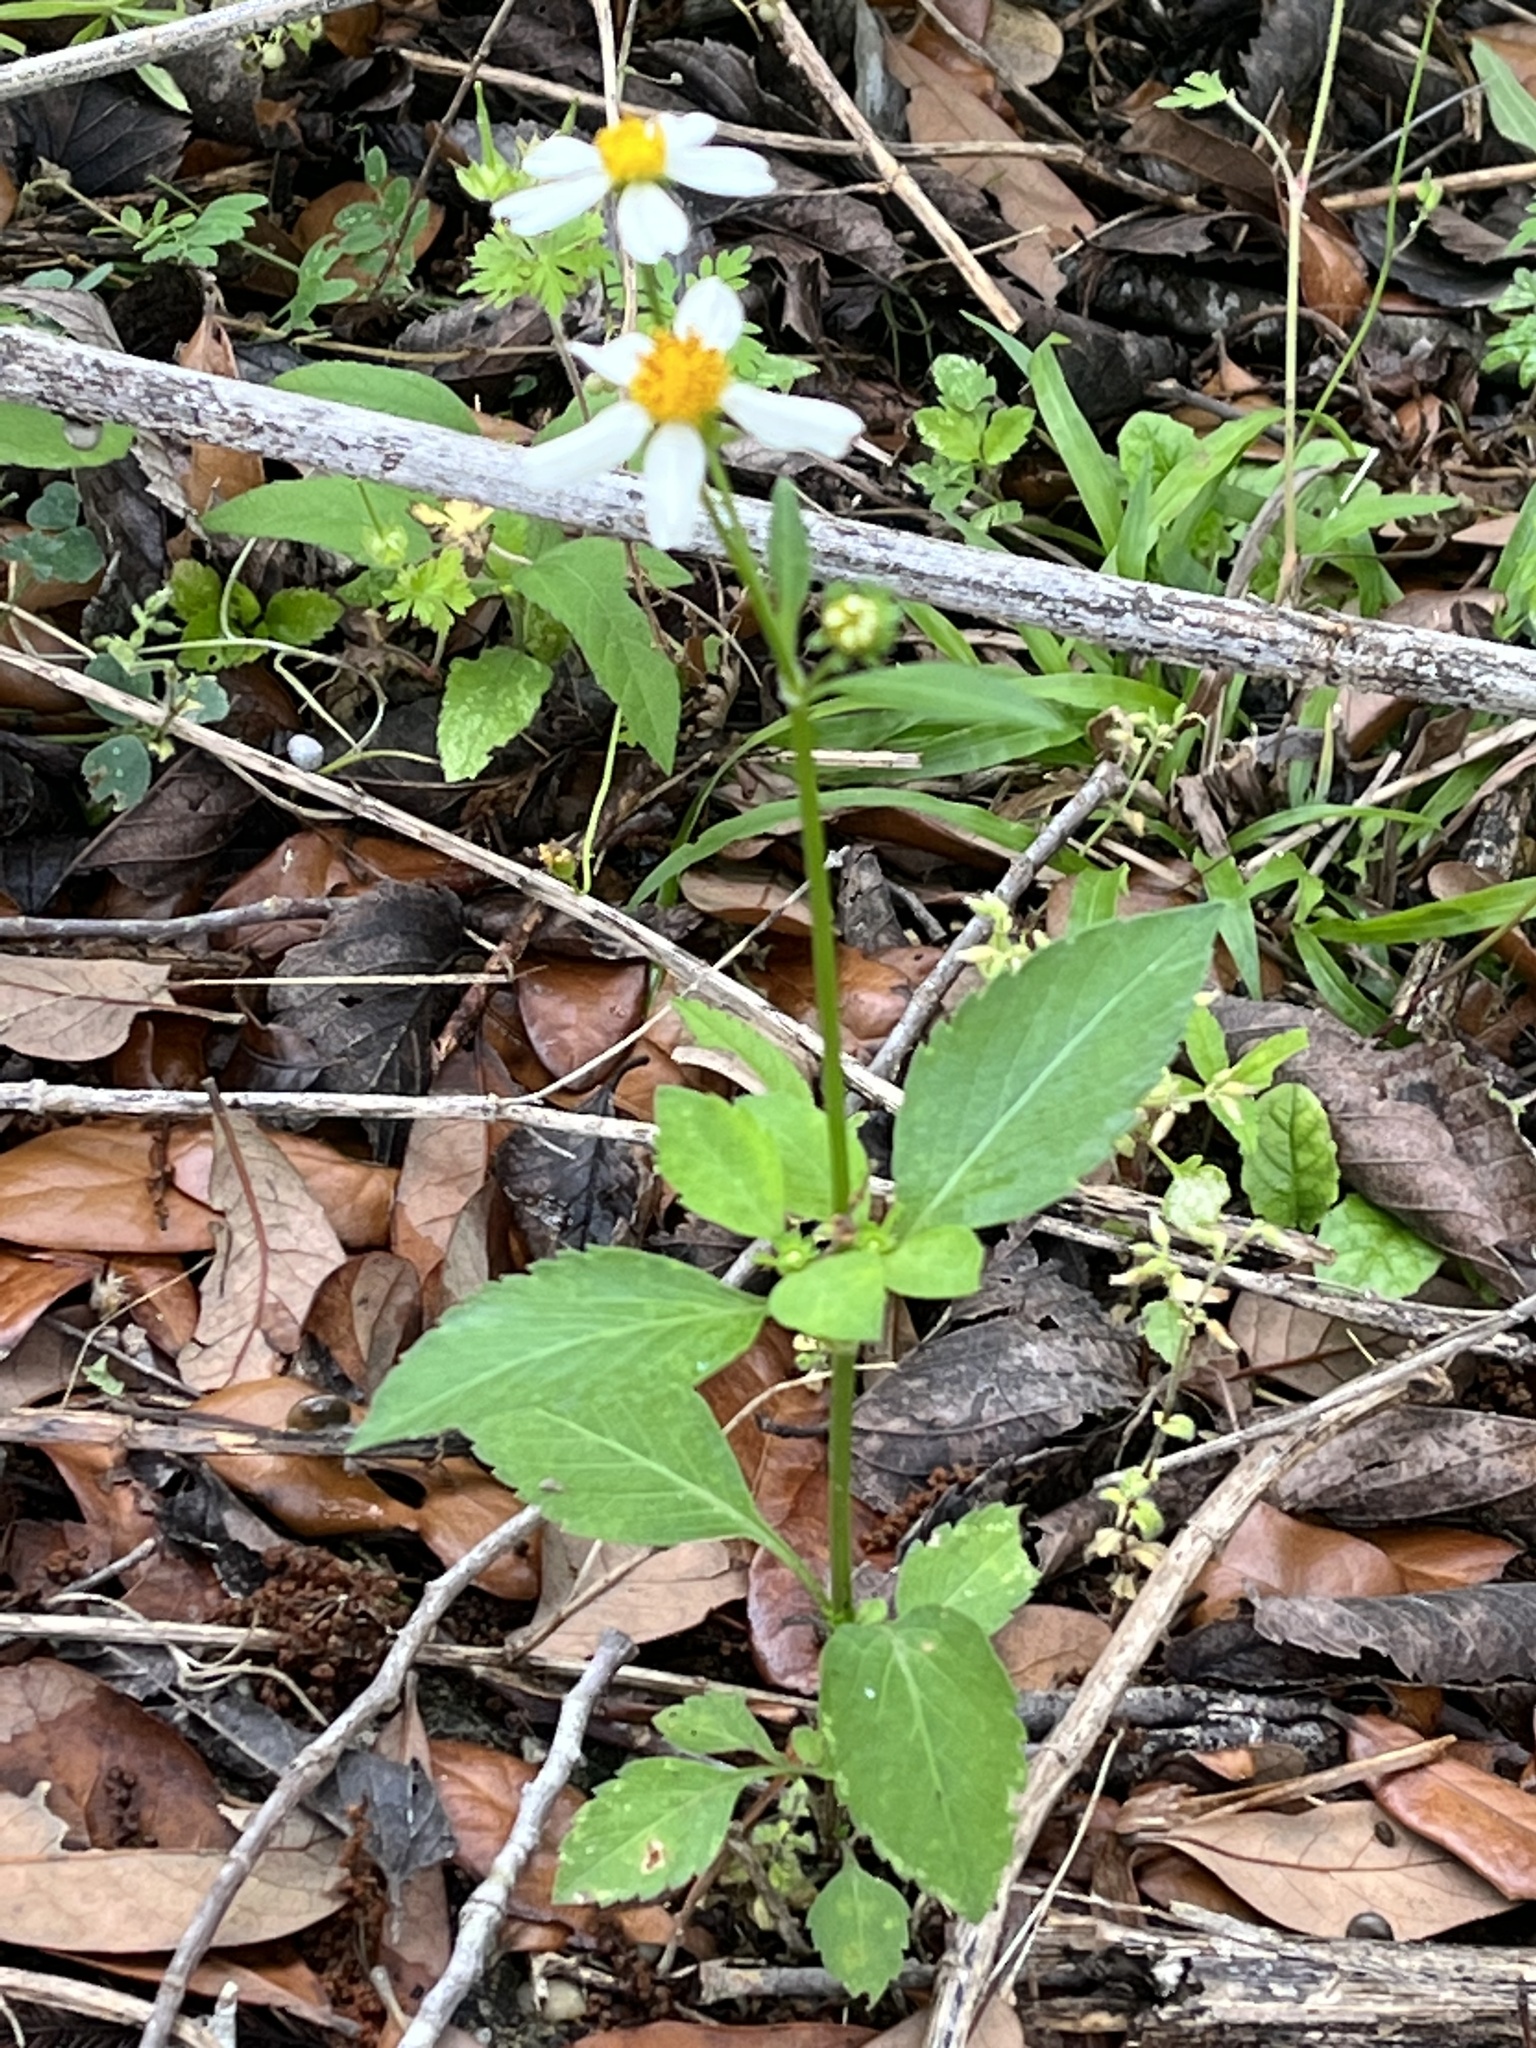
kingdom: Plantae
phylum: Tracheophyta
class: Magnoliopsida
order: Asterales
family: Asteraceae
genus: Bidens
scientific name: Bidens alba
